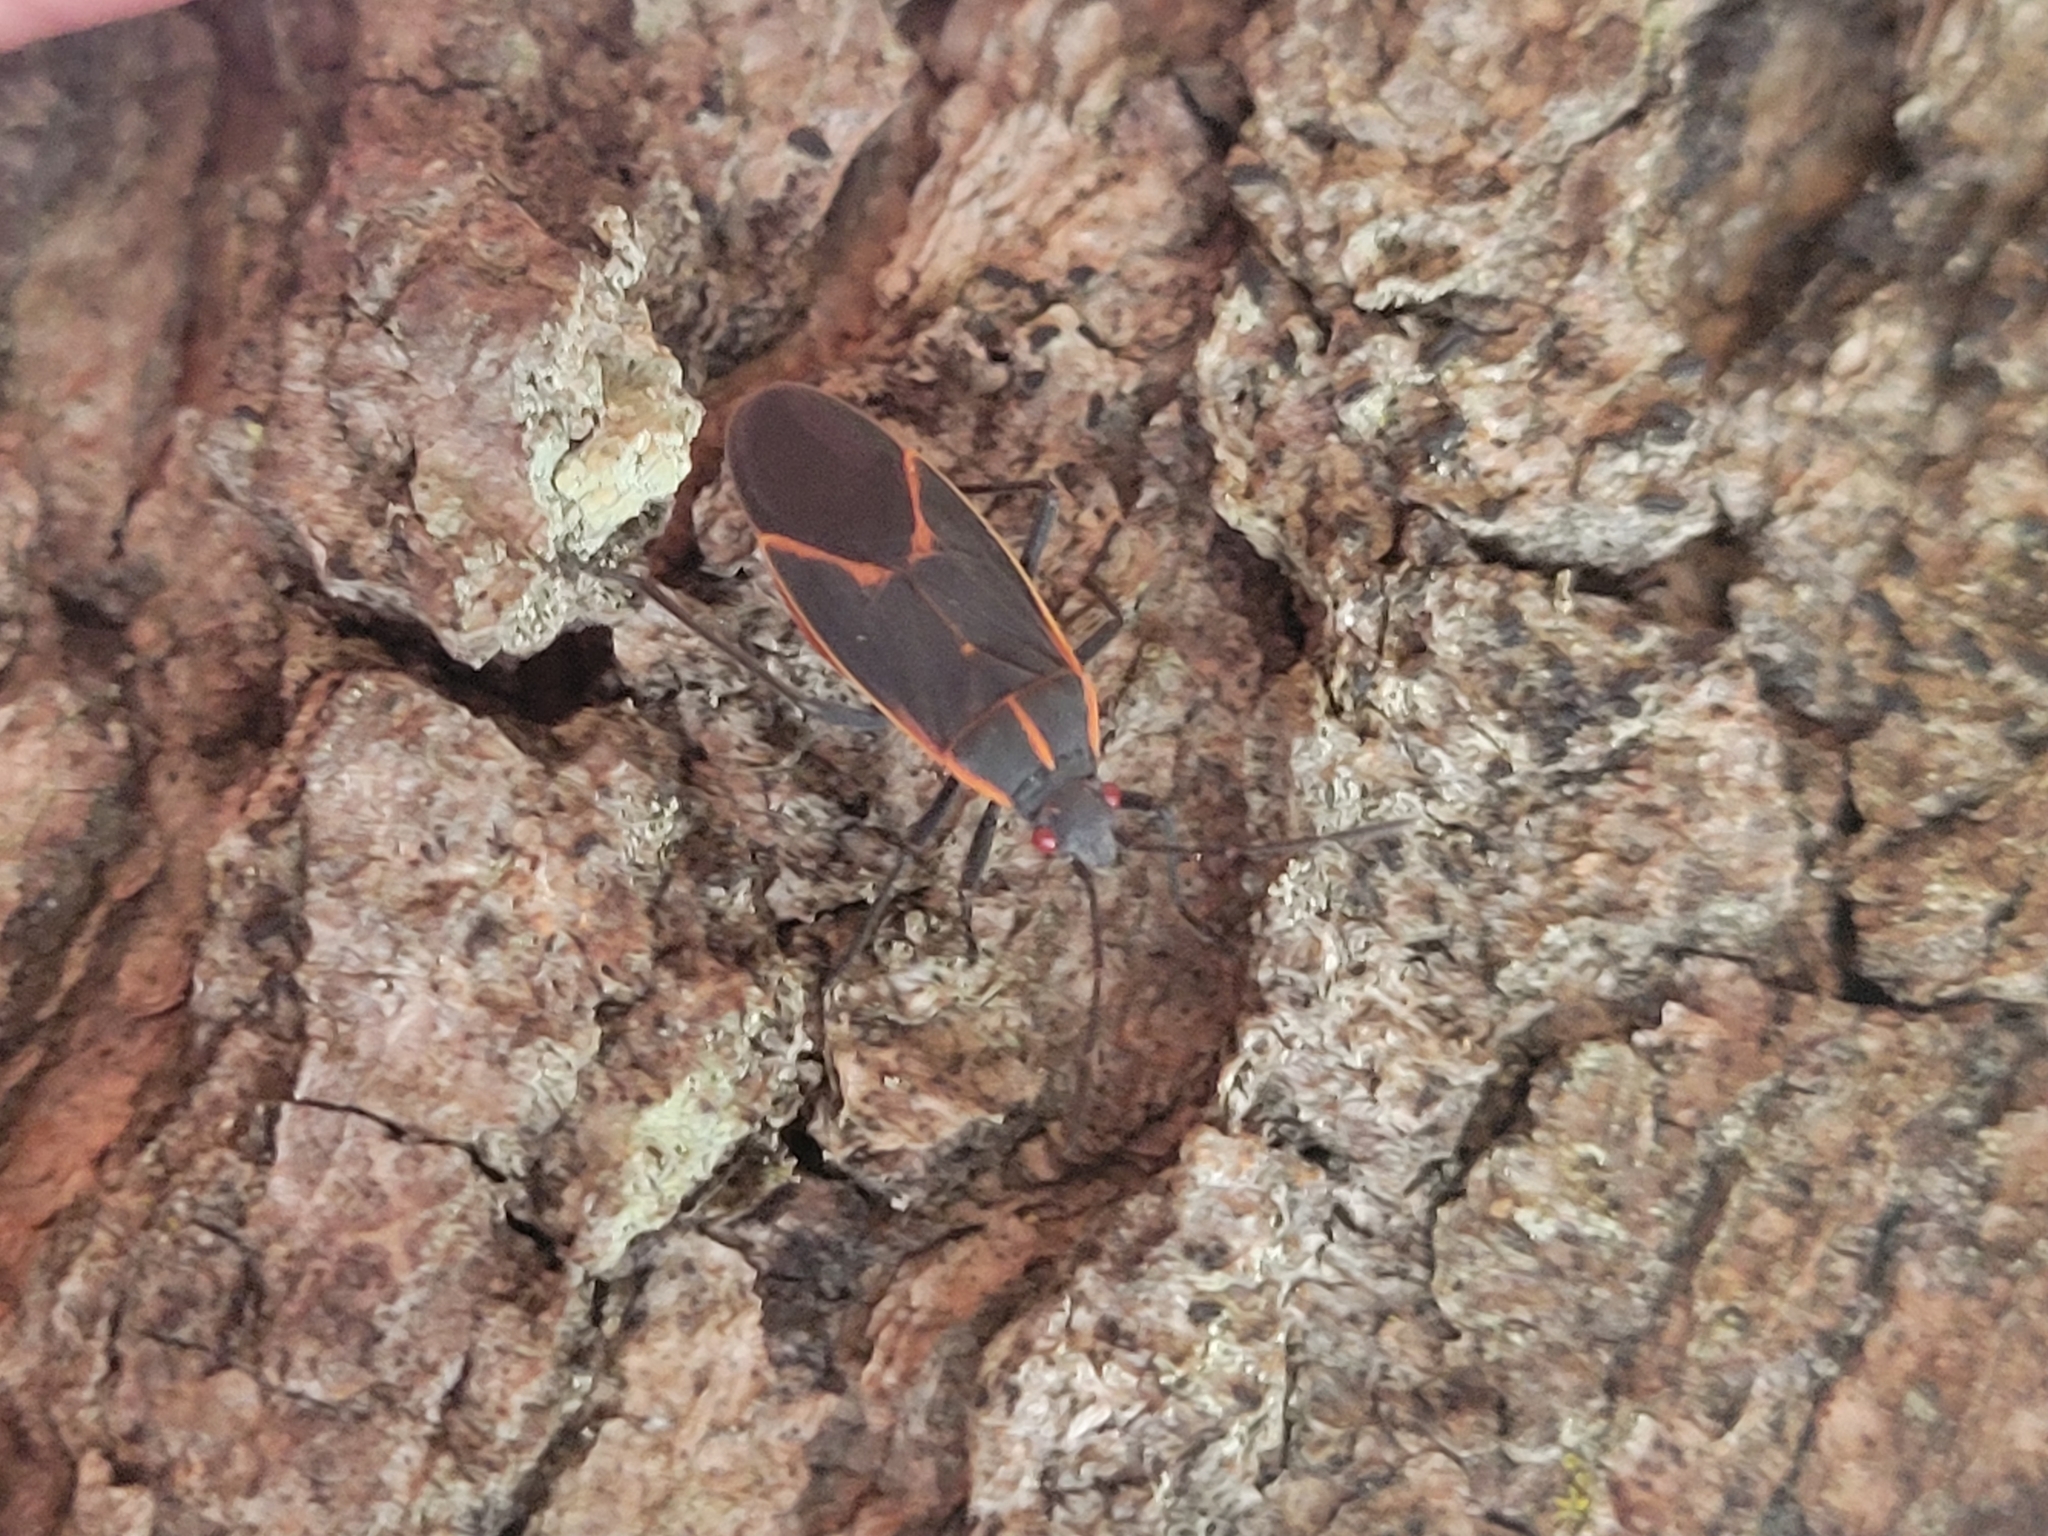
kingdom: Animalia
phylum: Arthropoda
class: Insecta
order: Hemiptera
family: Rhopalidae
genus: Boisea
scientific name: Boisea trivittata
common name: Boxelder bug
